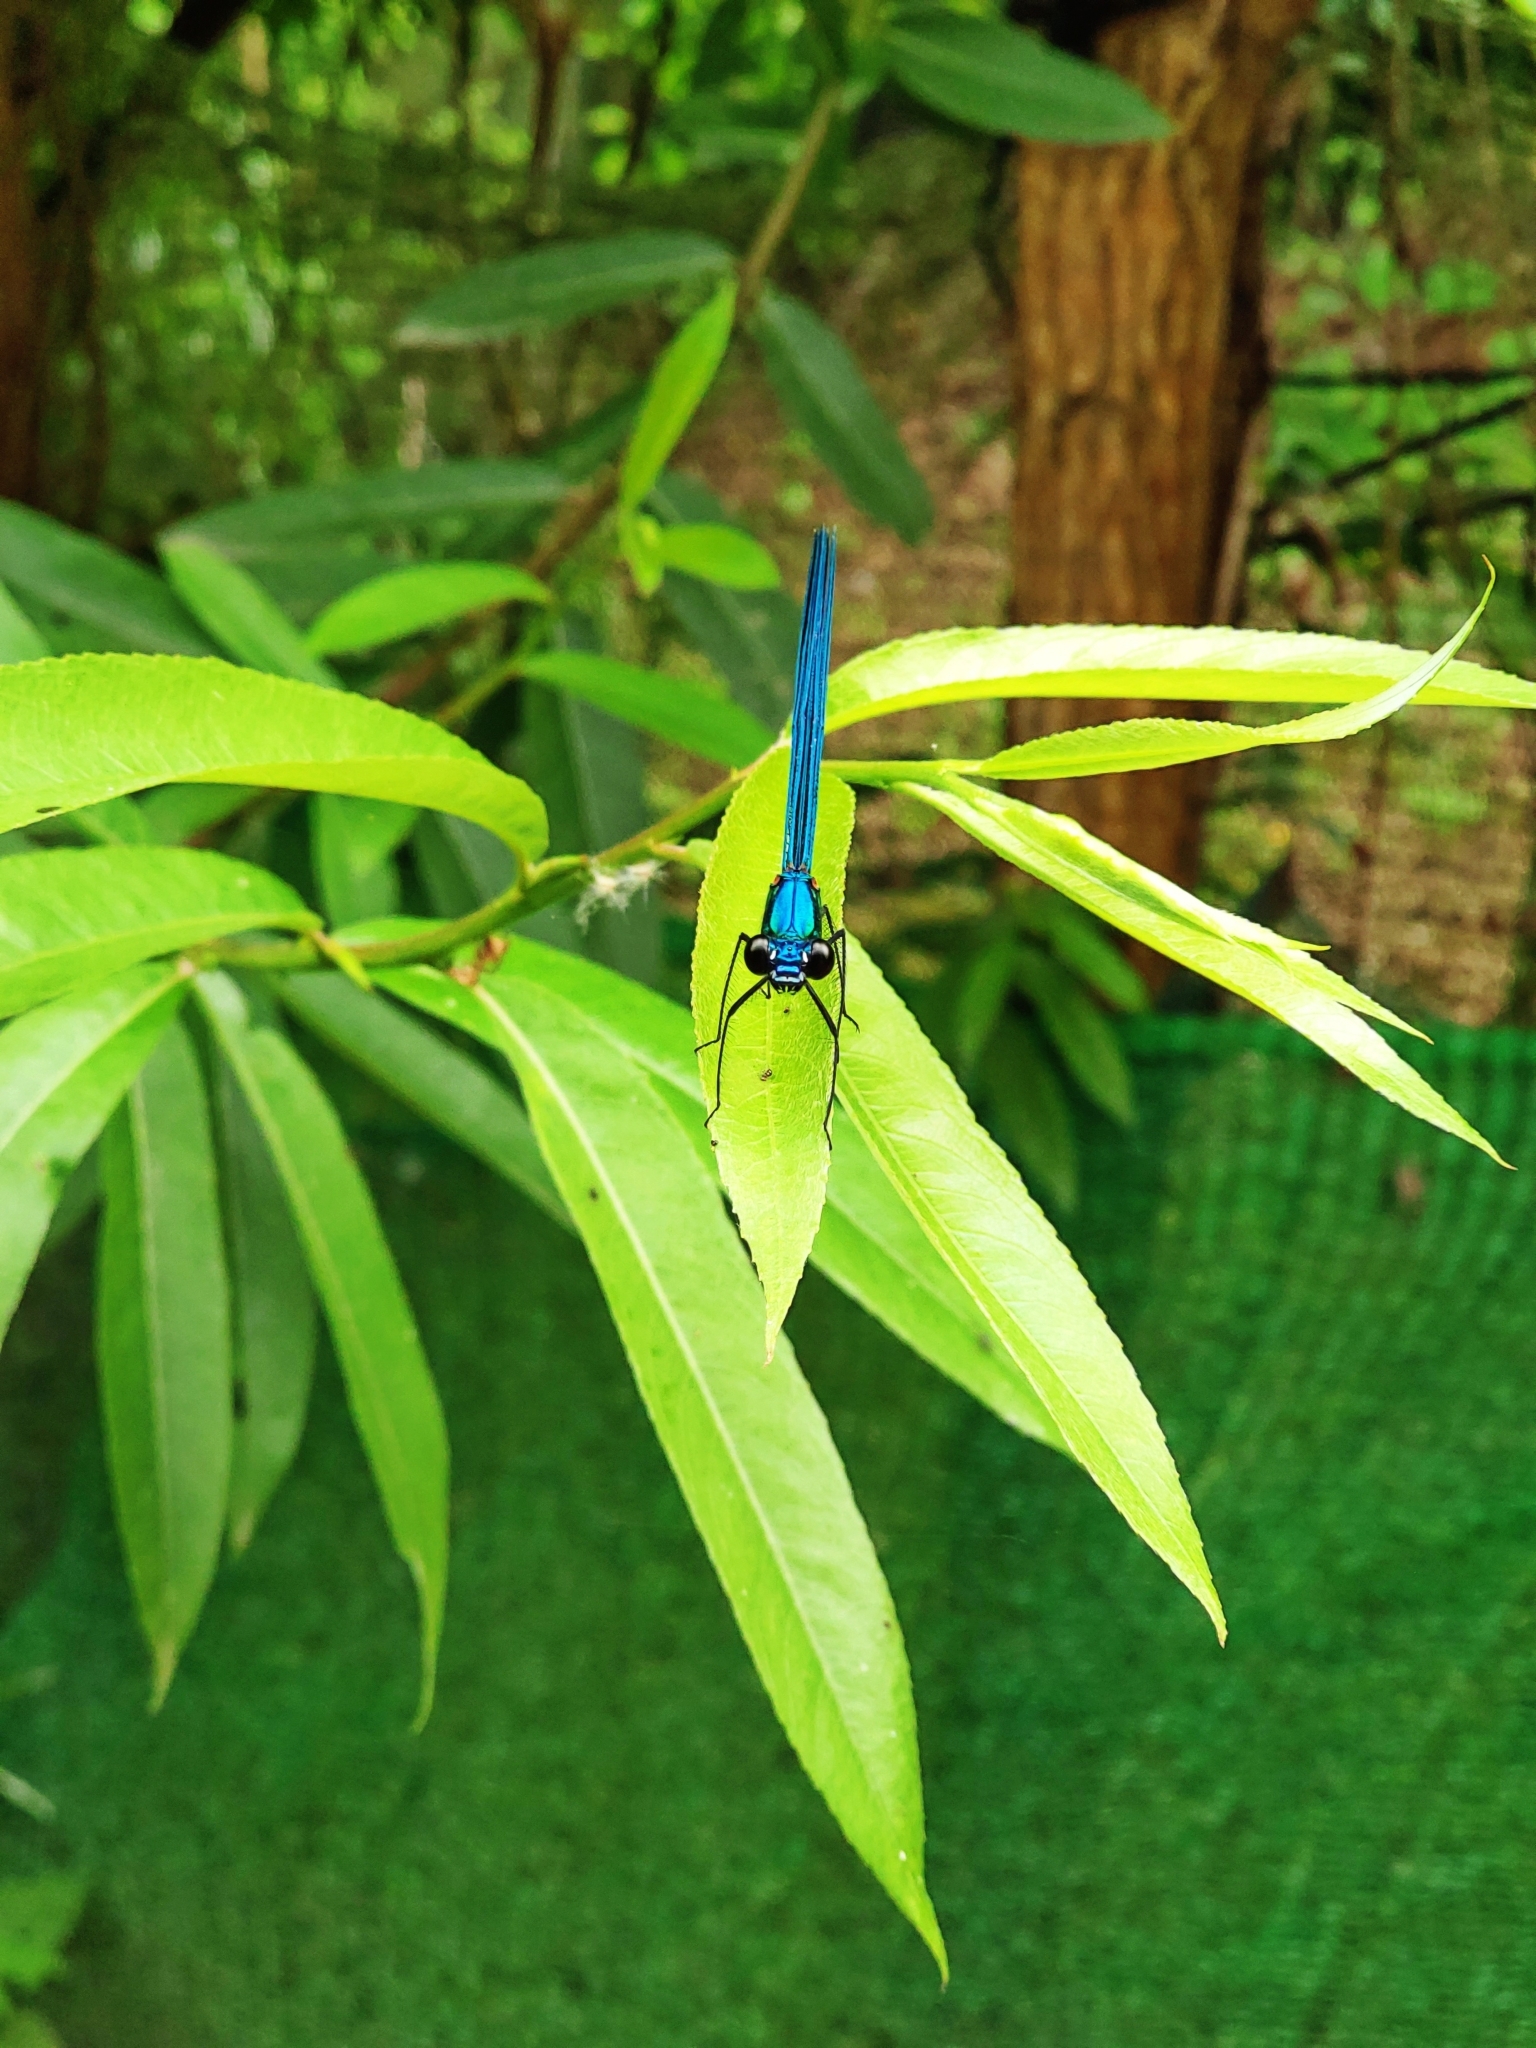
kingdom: Animalia
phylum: Arthropoda
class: Insecta
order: Odonata
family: Calopterygidae
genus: Calopteryx
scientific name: Calopteryx orientalis
